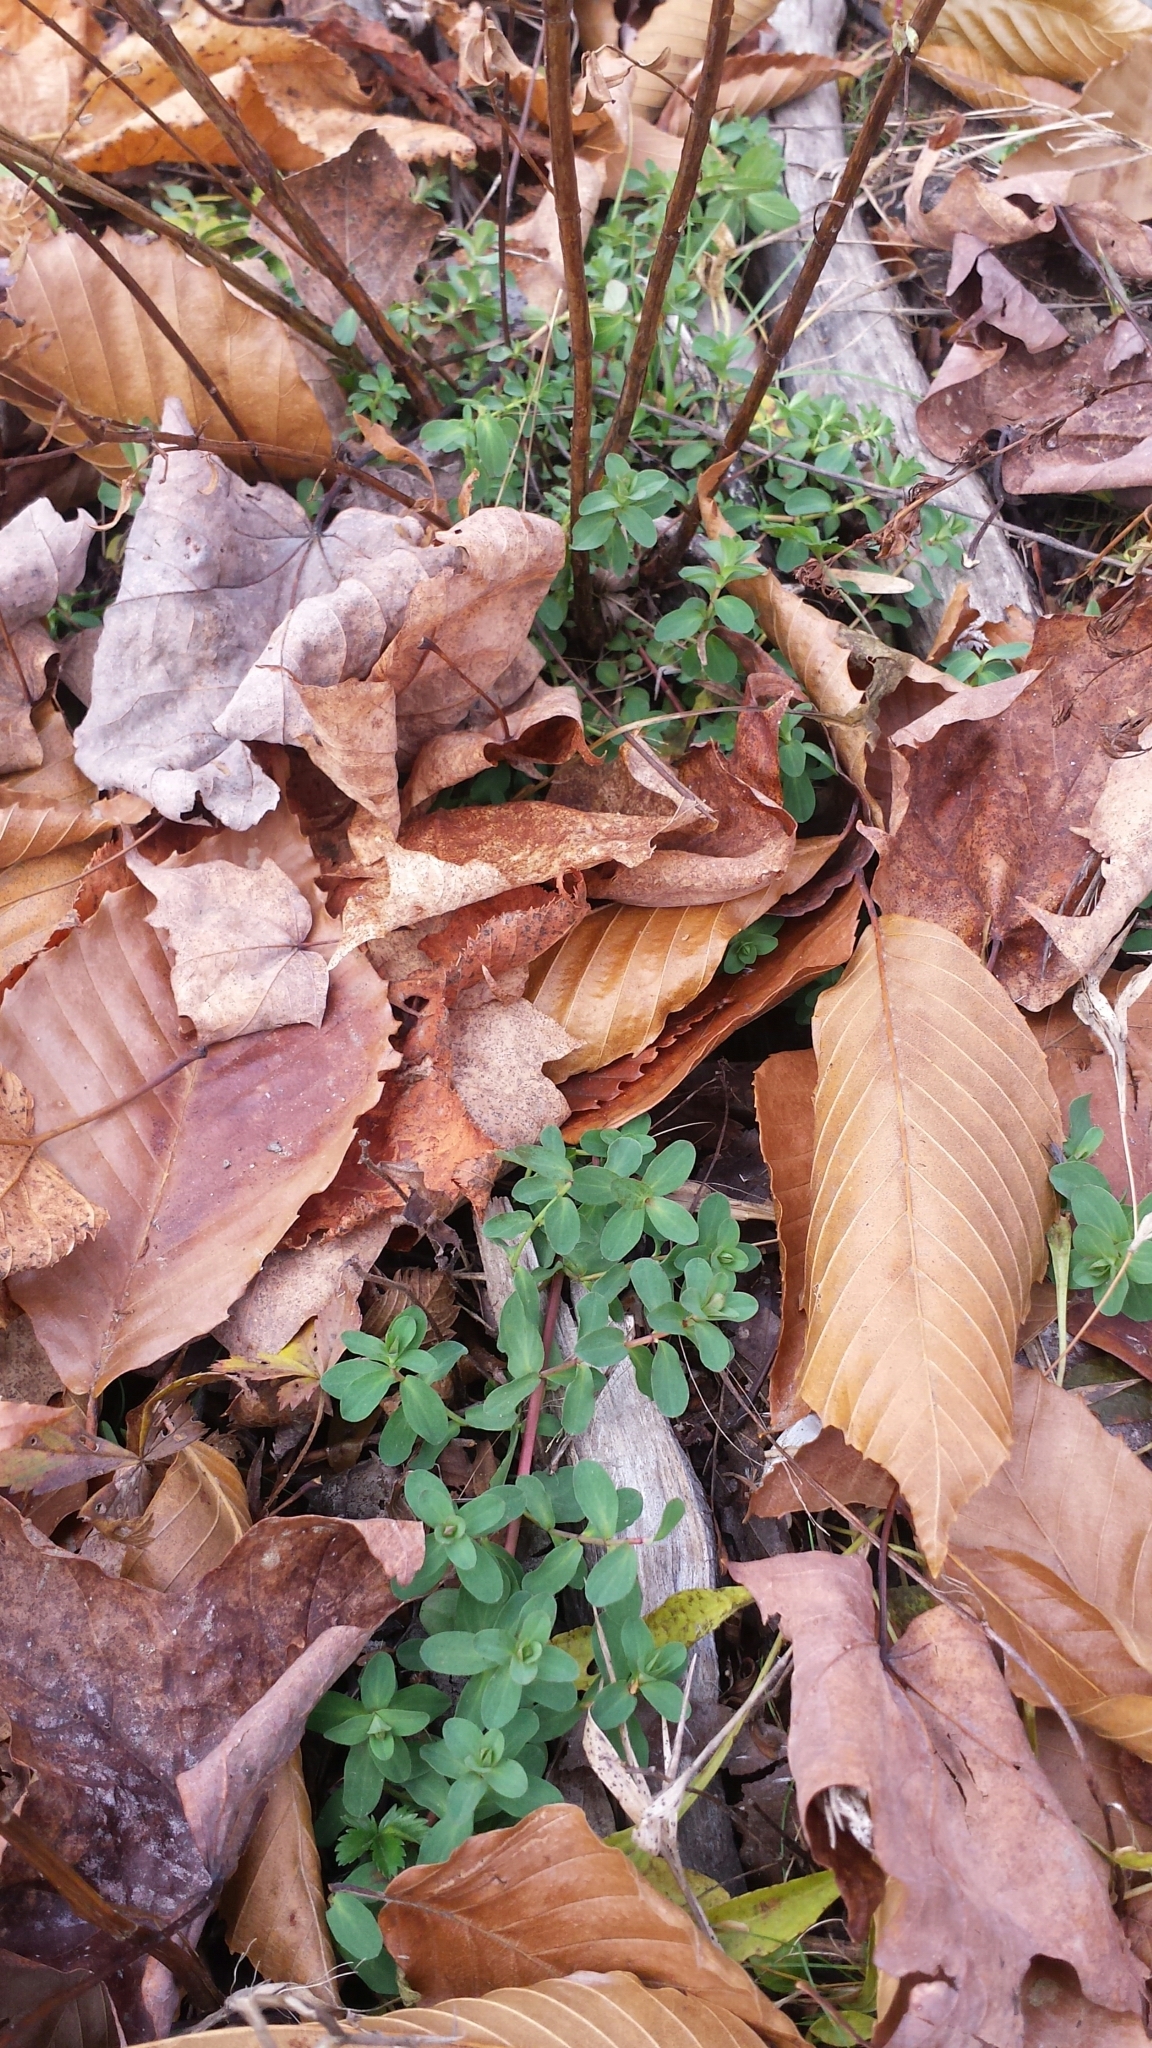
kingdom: Plantae
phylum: Tracheophyta
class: Magnoliopsida
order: Malpighiales
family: Hypericaceae
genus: Hypericum
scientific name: Hypericum perforatum
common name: Common st. johnswort
